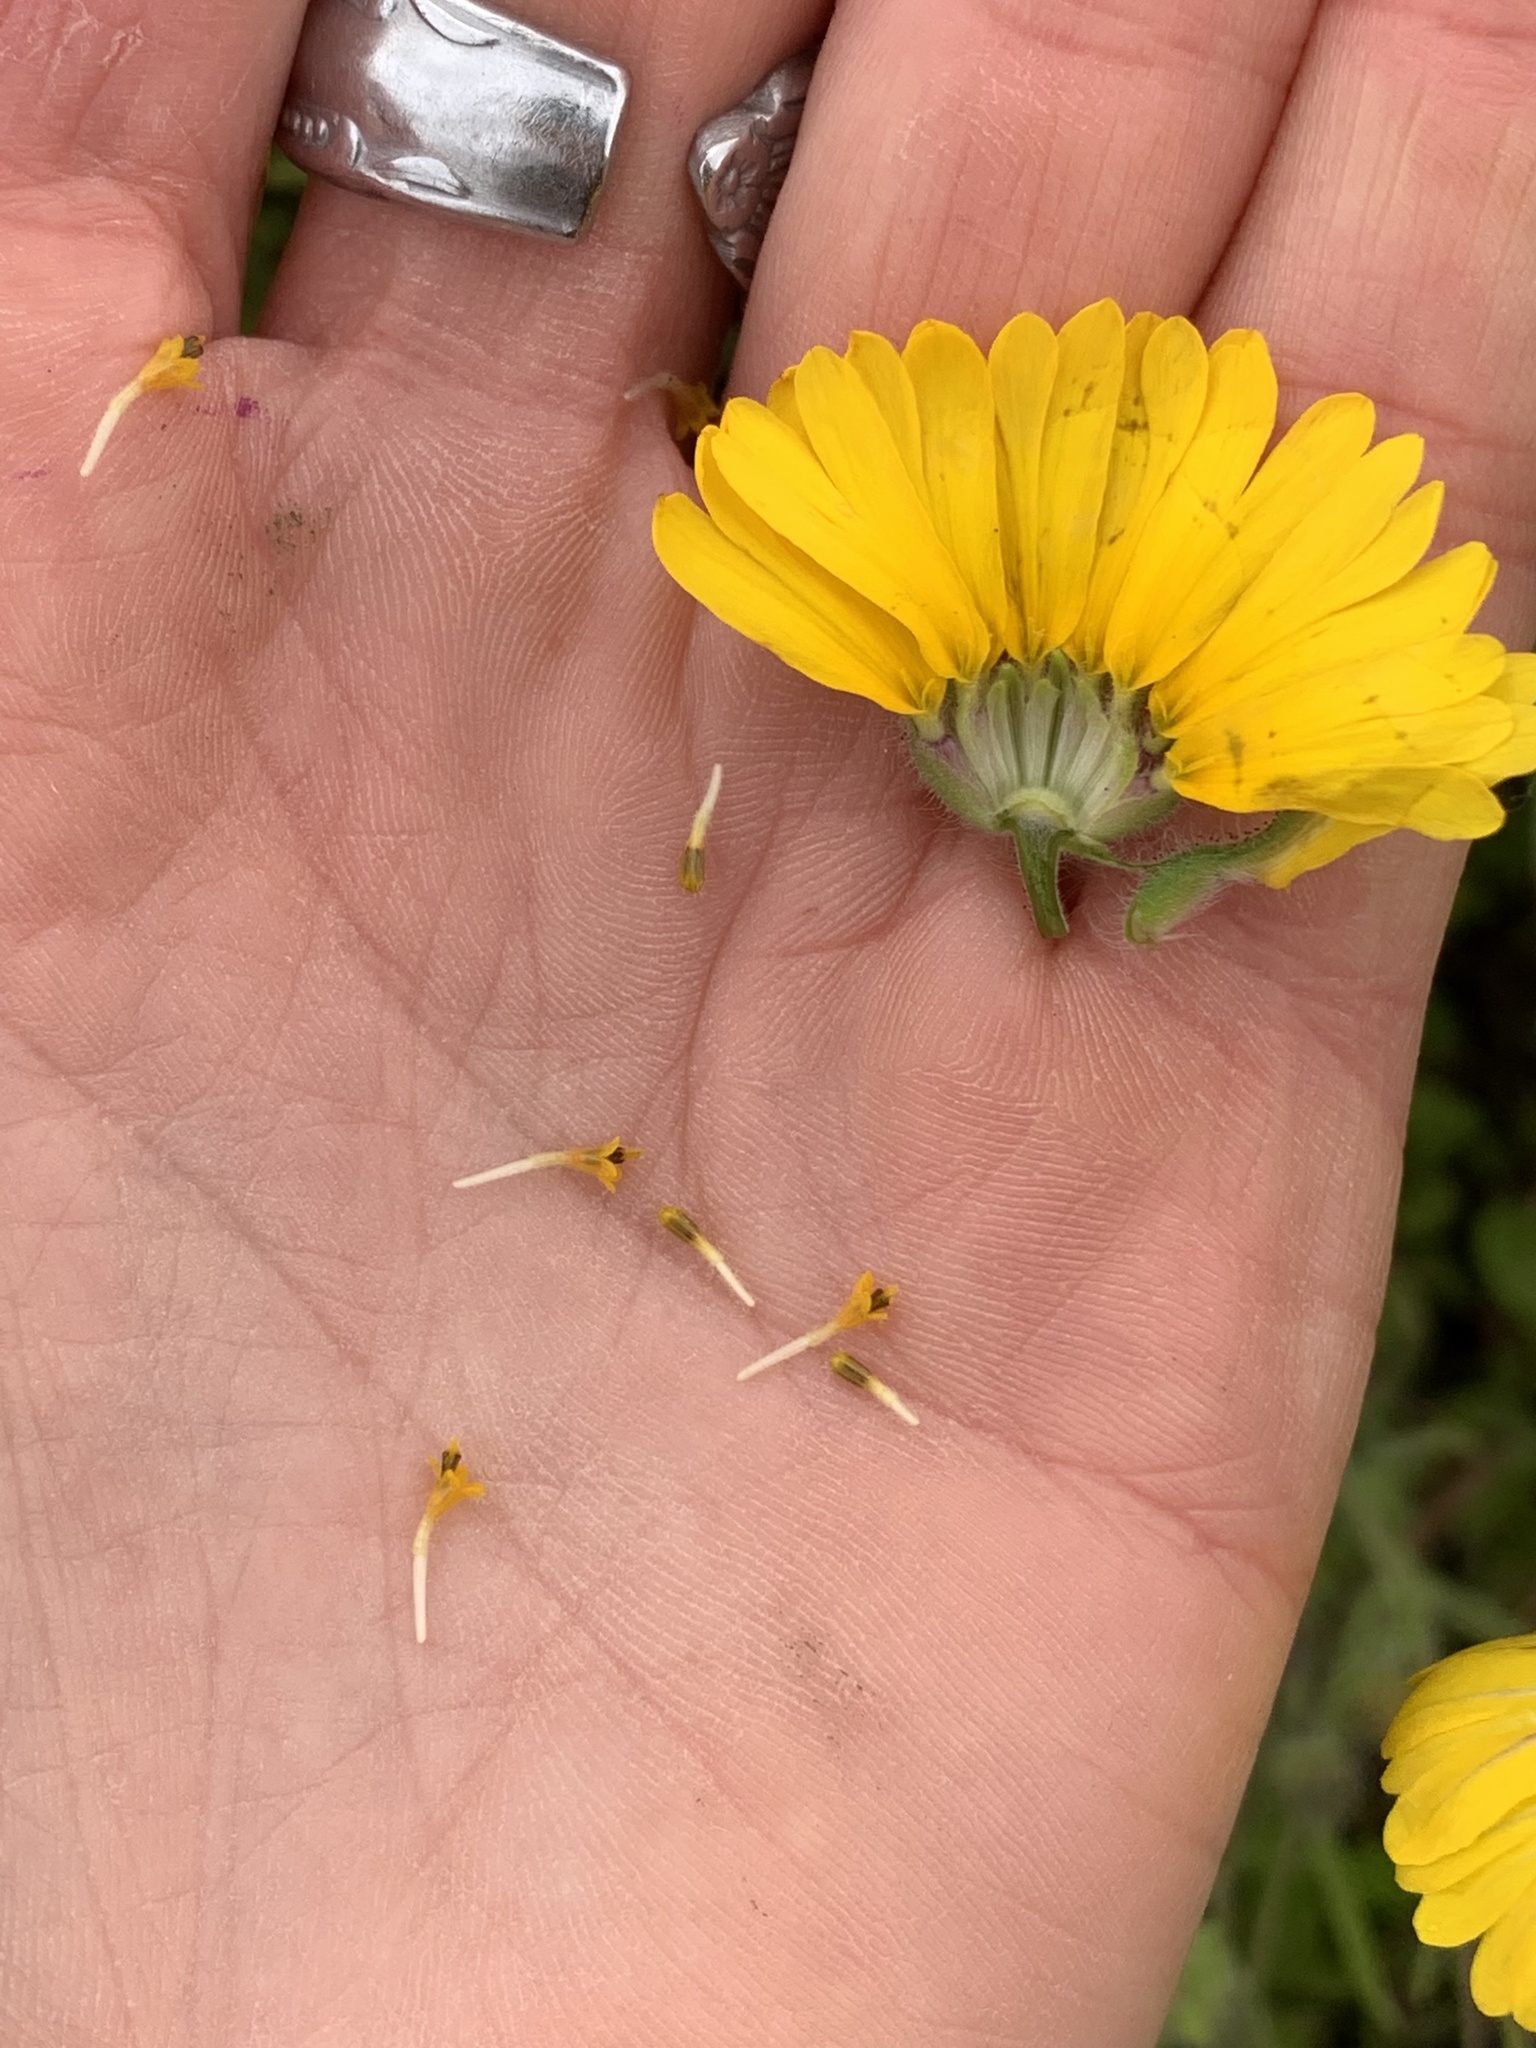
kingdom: Plantae
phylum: Tracheophyta
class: Magnoliopsida
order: Asterales
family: Asteraceae
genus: Madia
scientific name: Madia elegans
